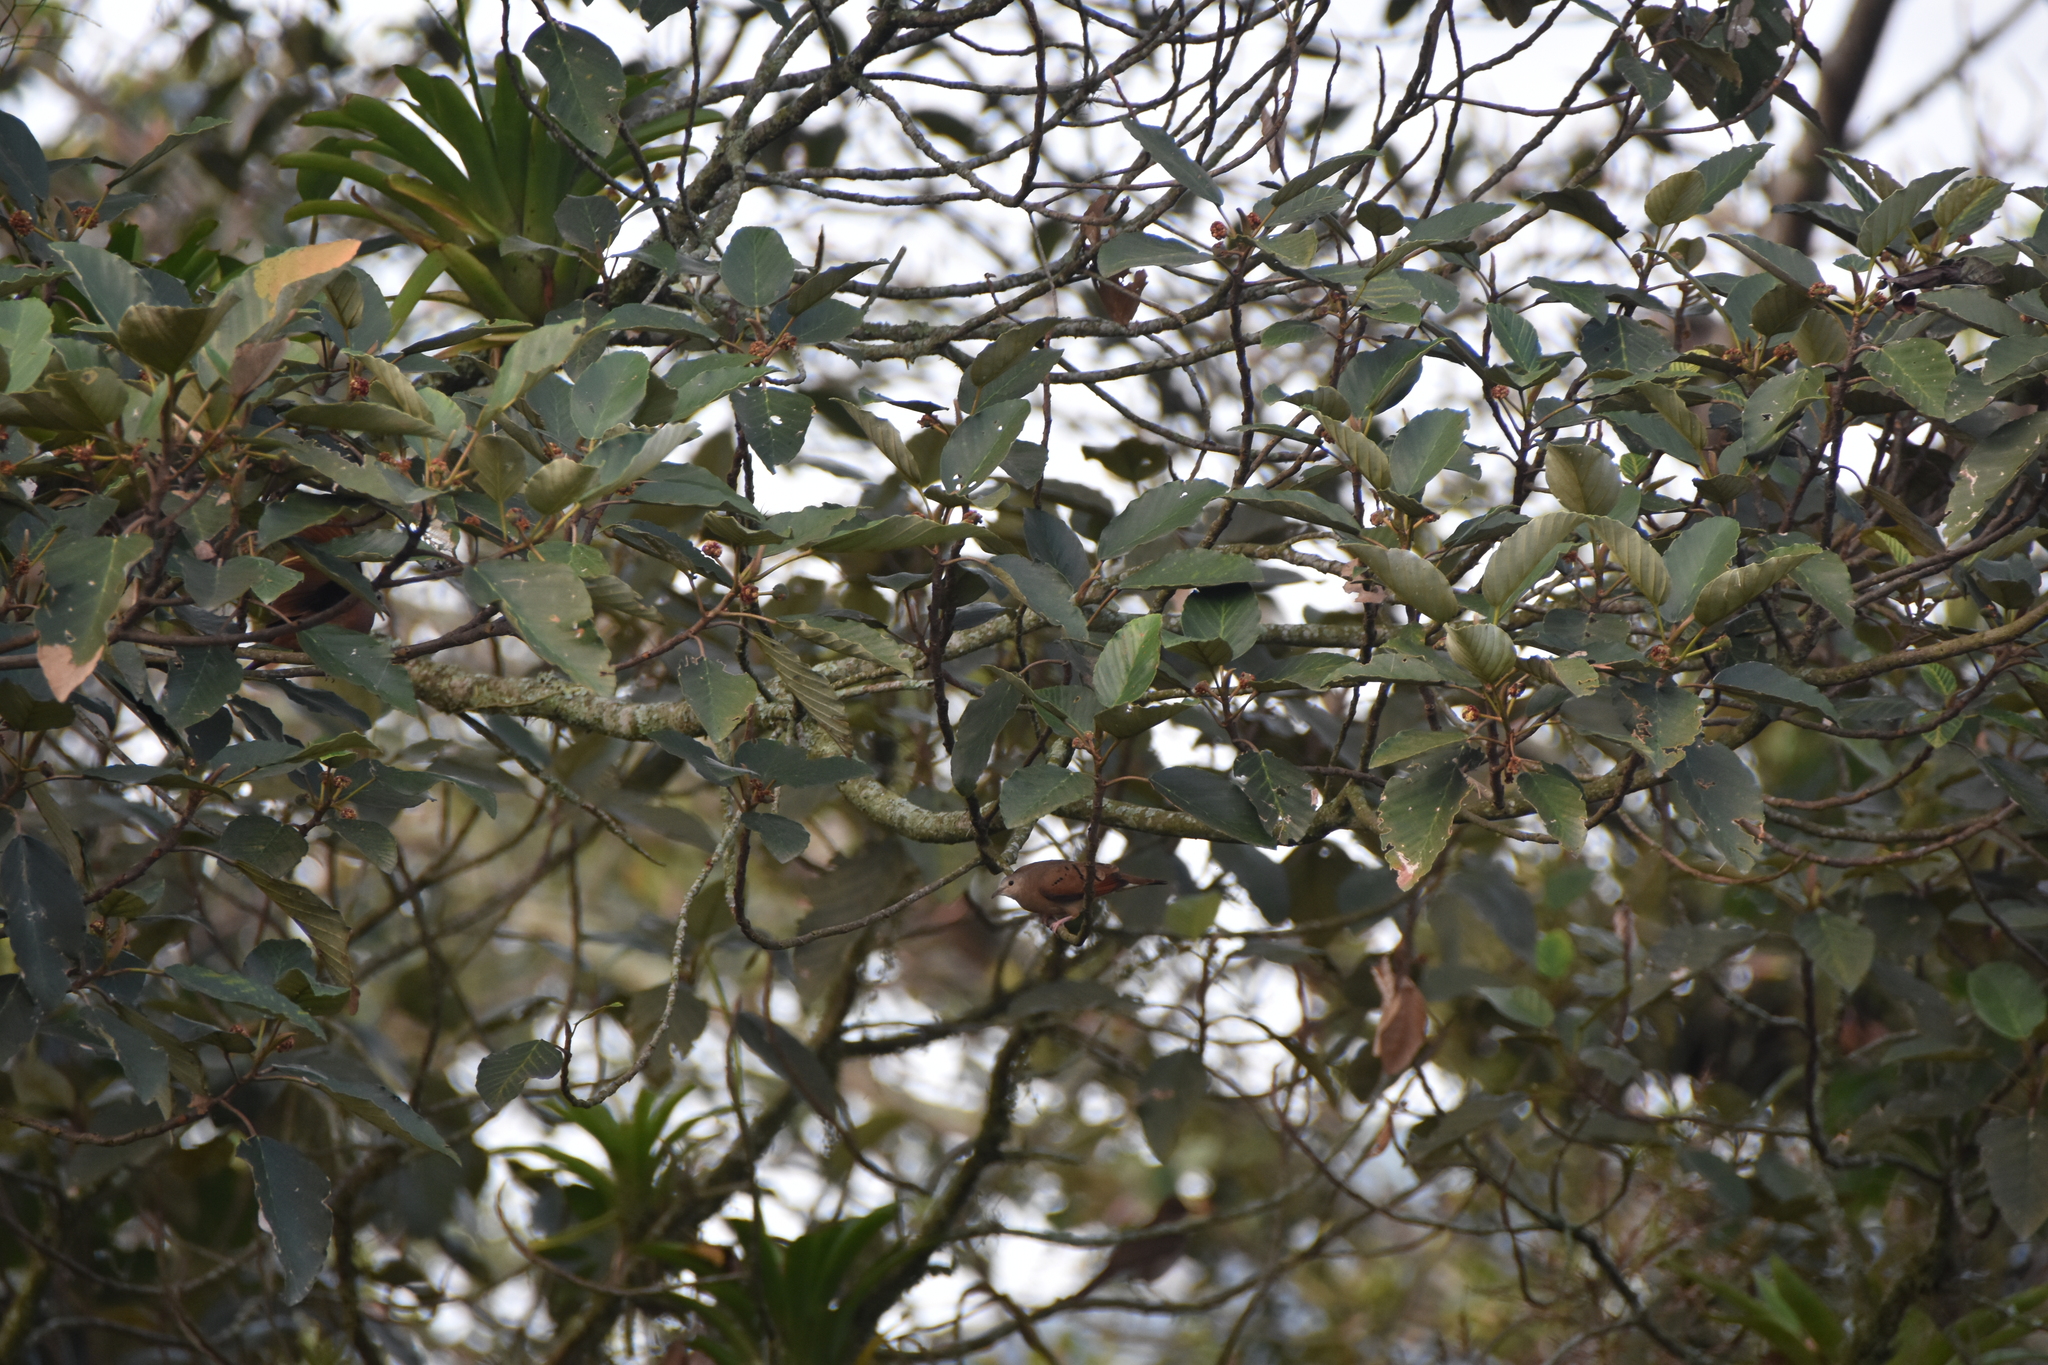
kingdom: Animalia
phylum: Chordata
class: Aves
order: Columbiformes
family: Columbidae
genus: Columbina
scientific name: Columbina talpacoti
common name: Ruddy ground dove
